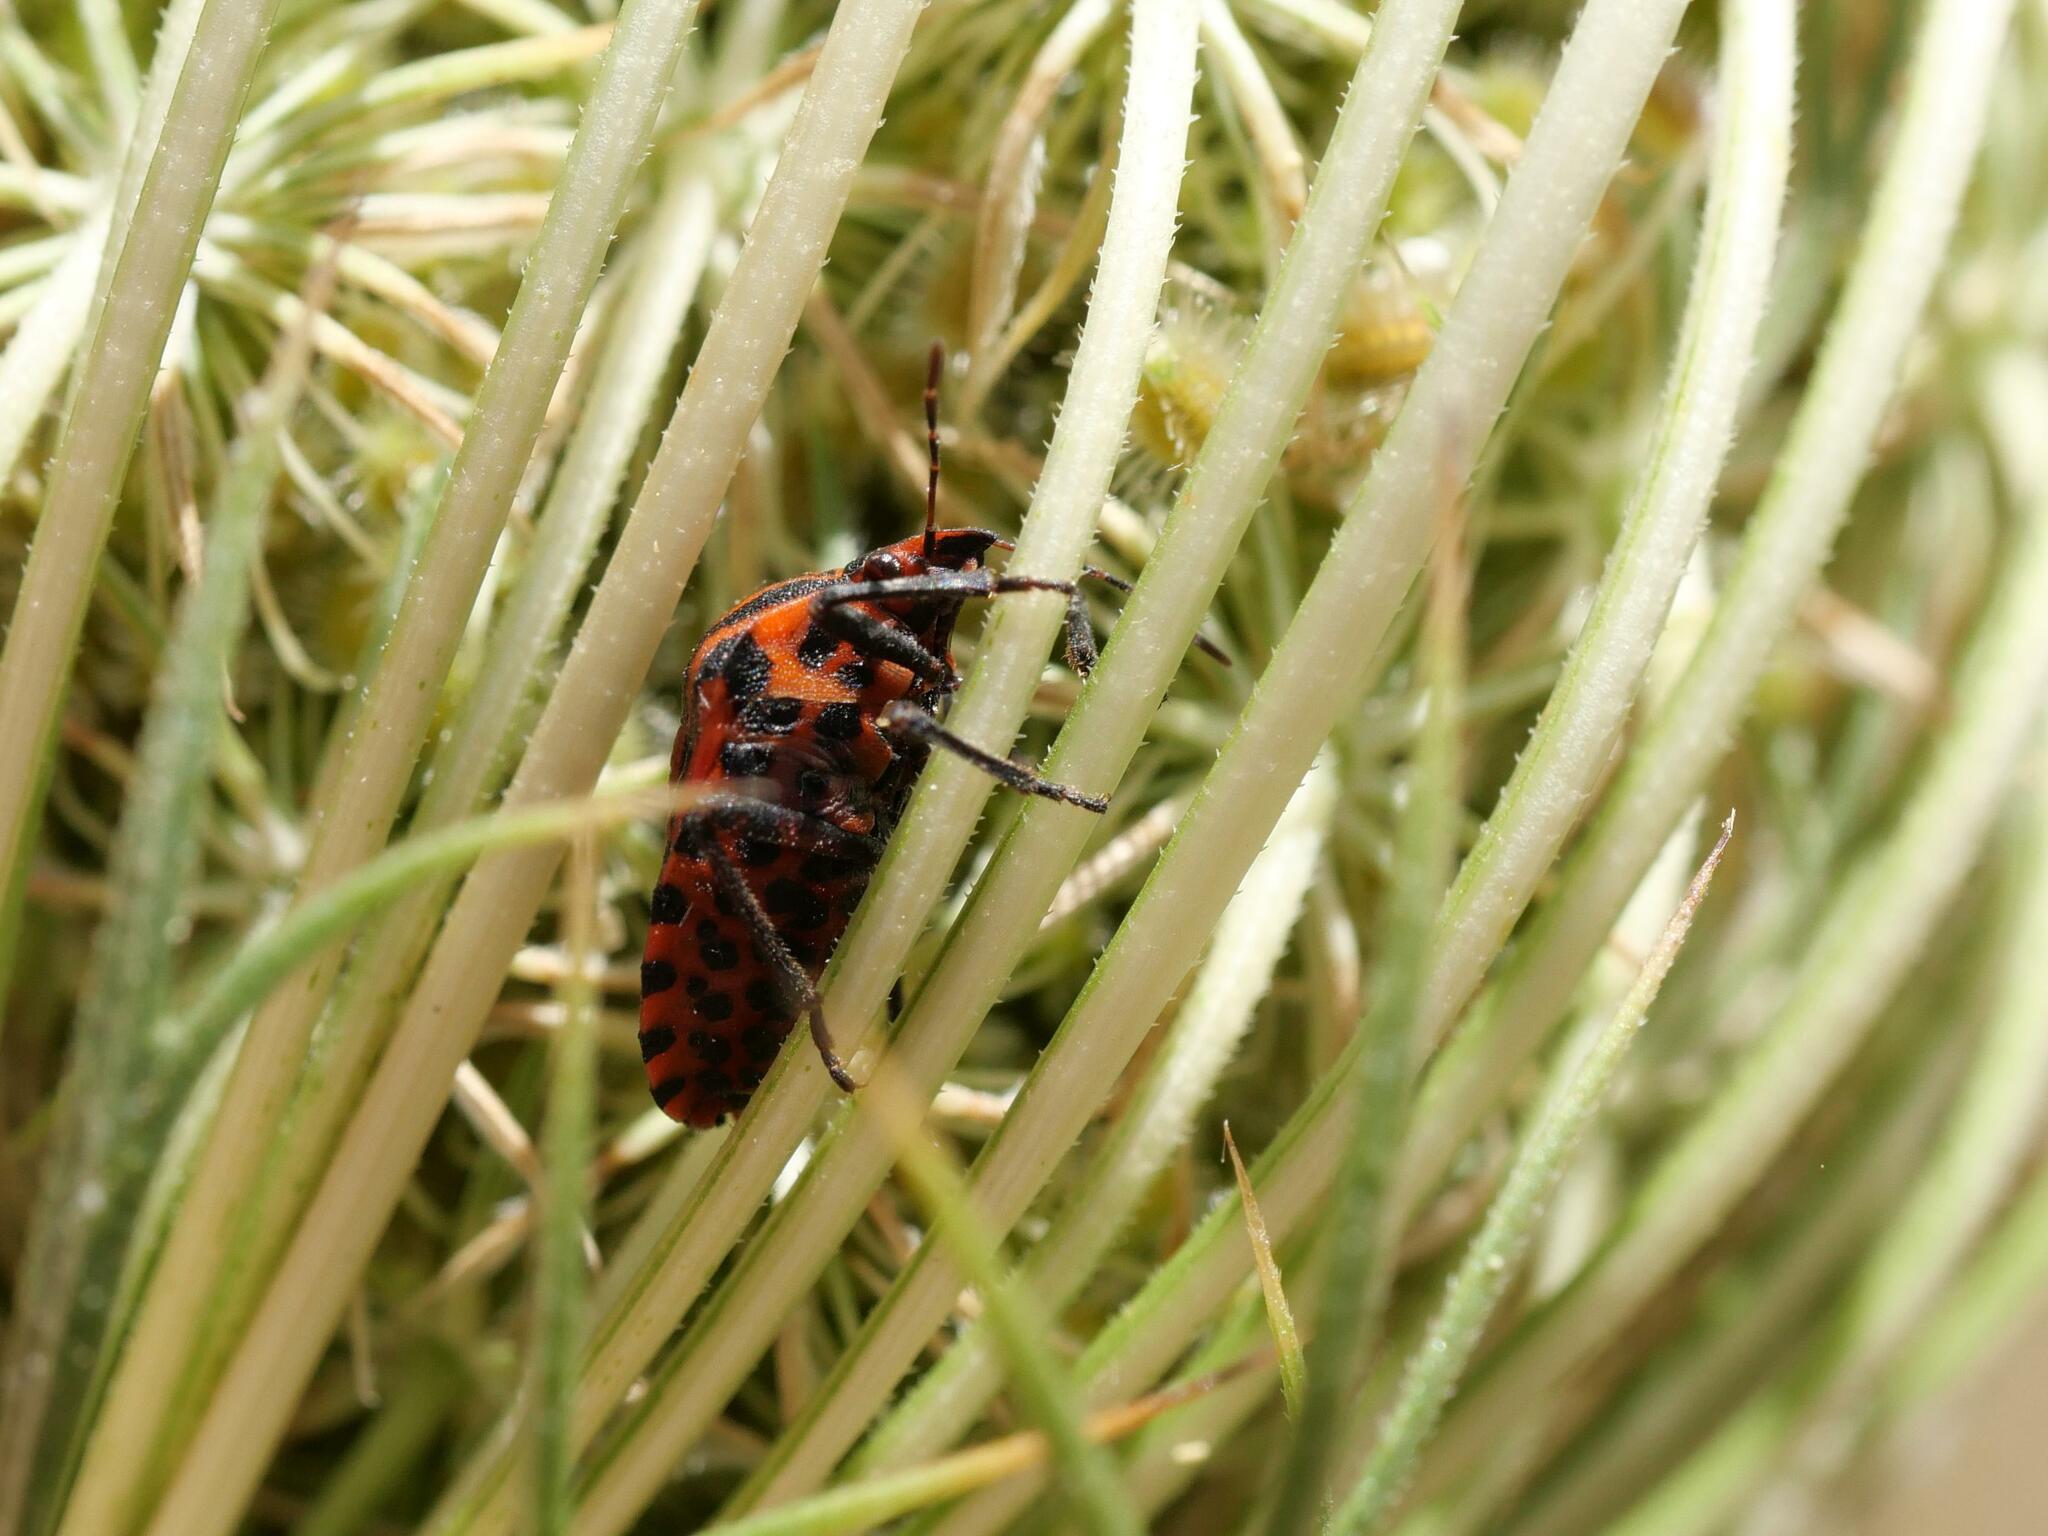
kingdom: Animalia
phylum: Arthropoda
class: Insecta
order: Hemiptera
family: Pentatomidae
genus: Graphosoma
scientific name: Graphosoma italicum
